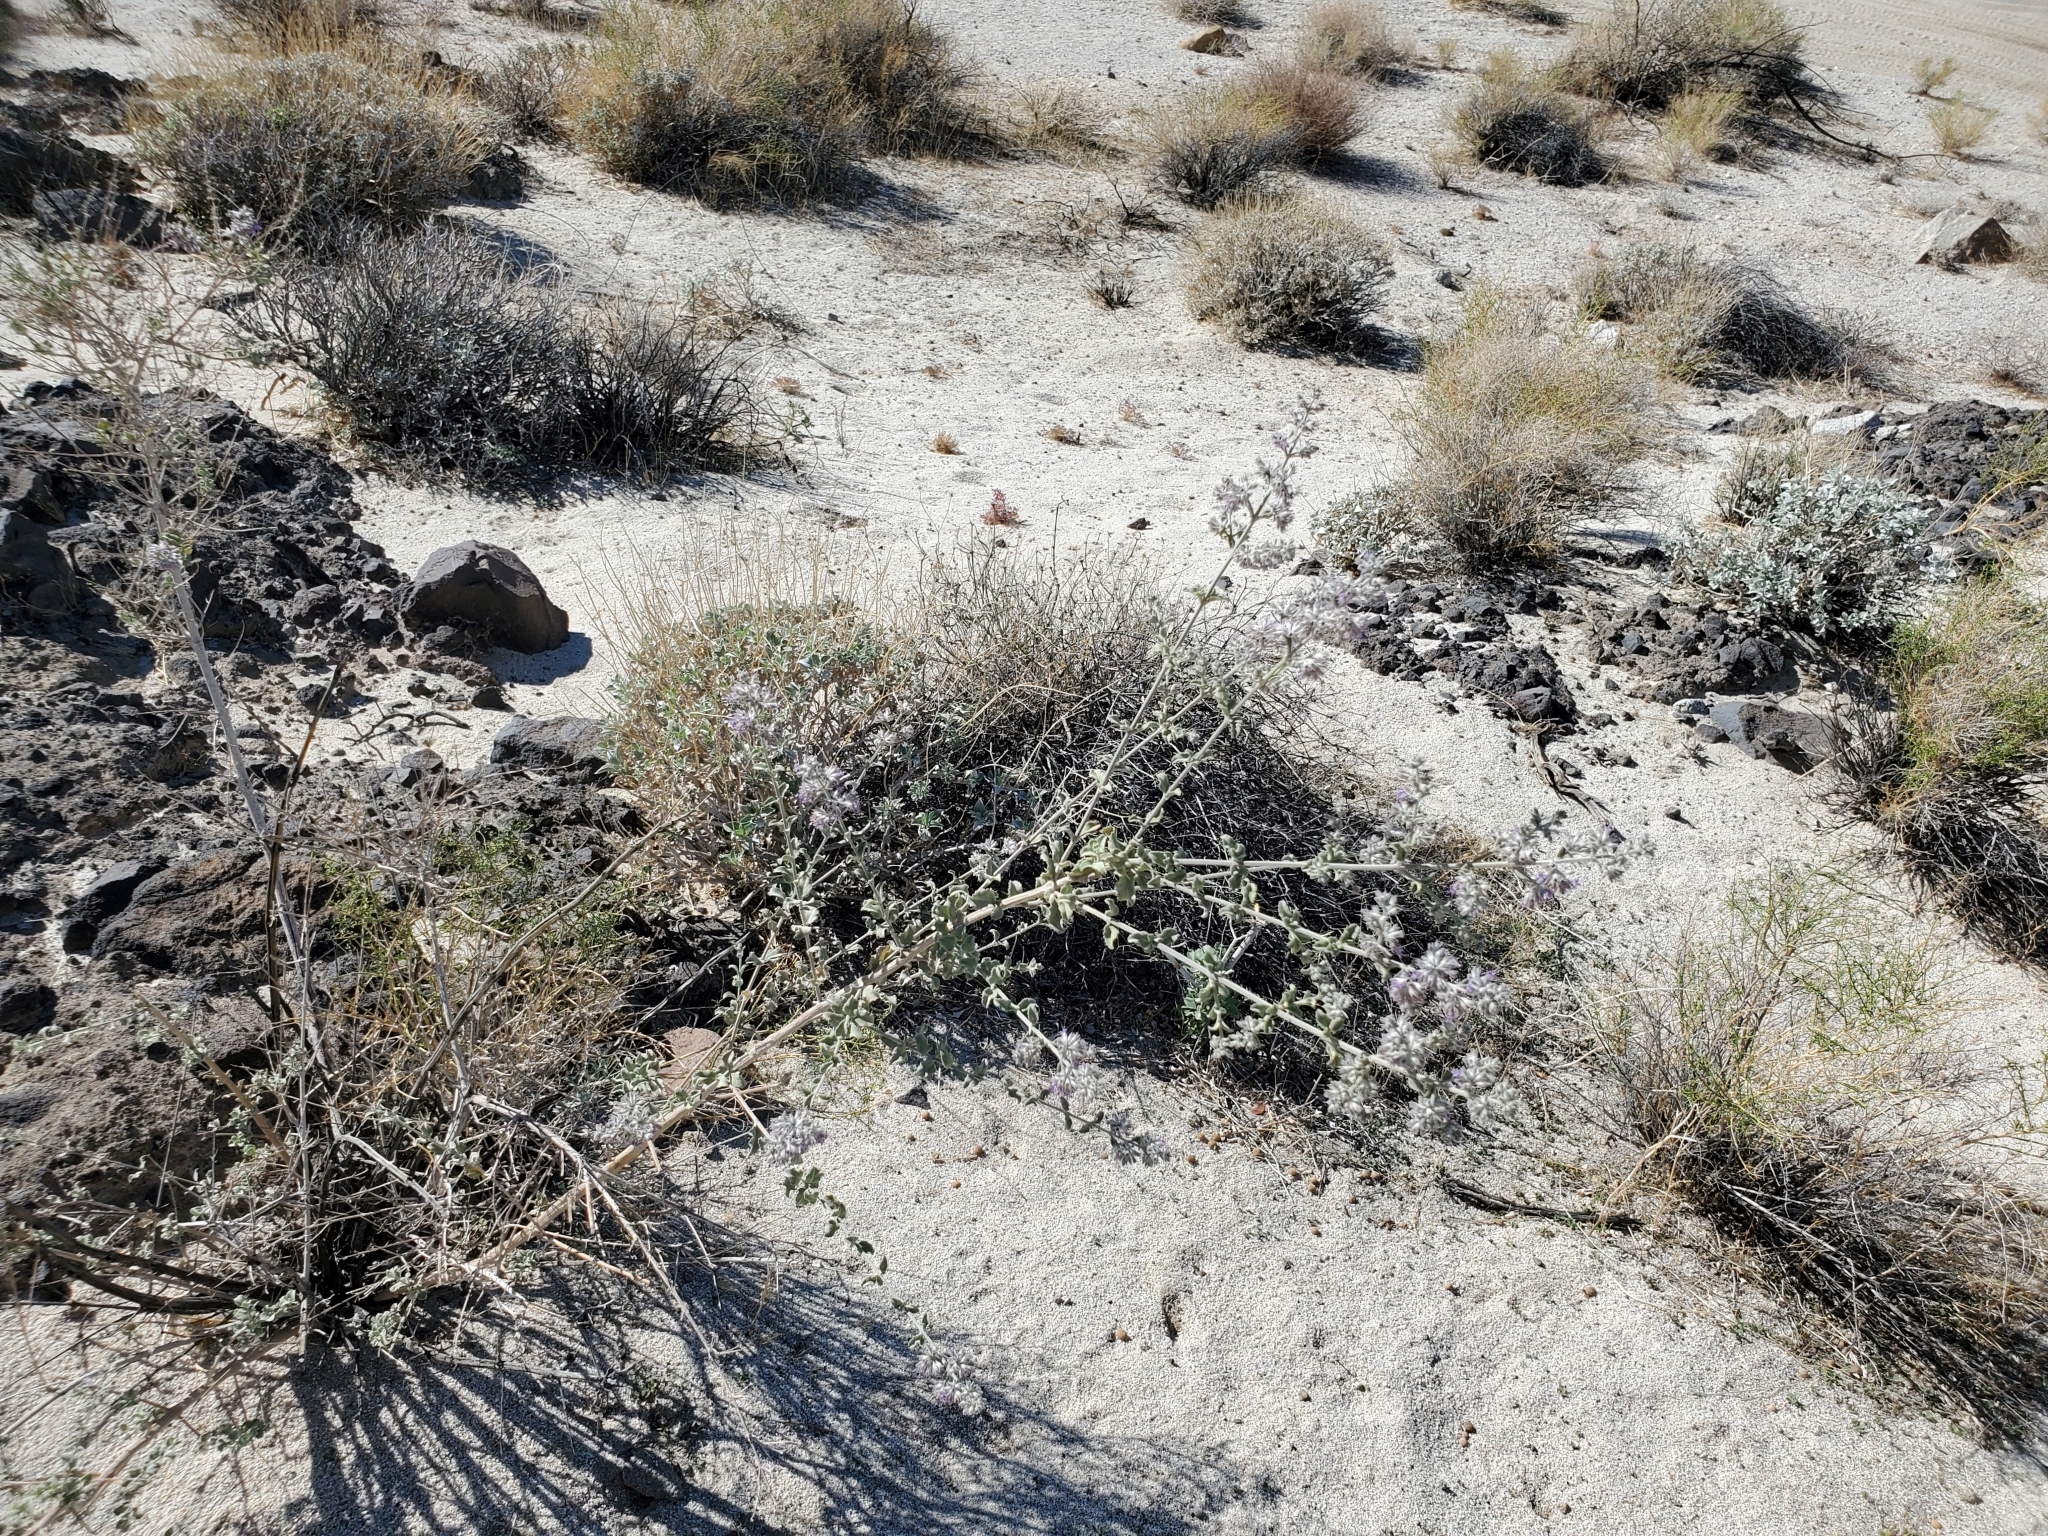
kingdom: Plantae
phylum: Tracheophyta
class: Magnoliopsida
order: Lamiales
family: Lamiaceae
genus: Condea
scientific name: Condea emoryi
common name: Chia
